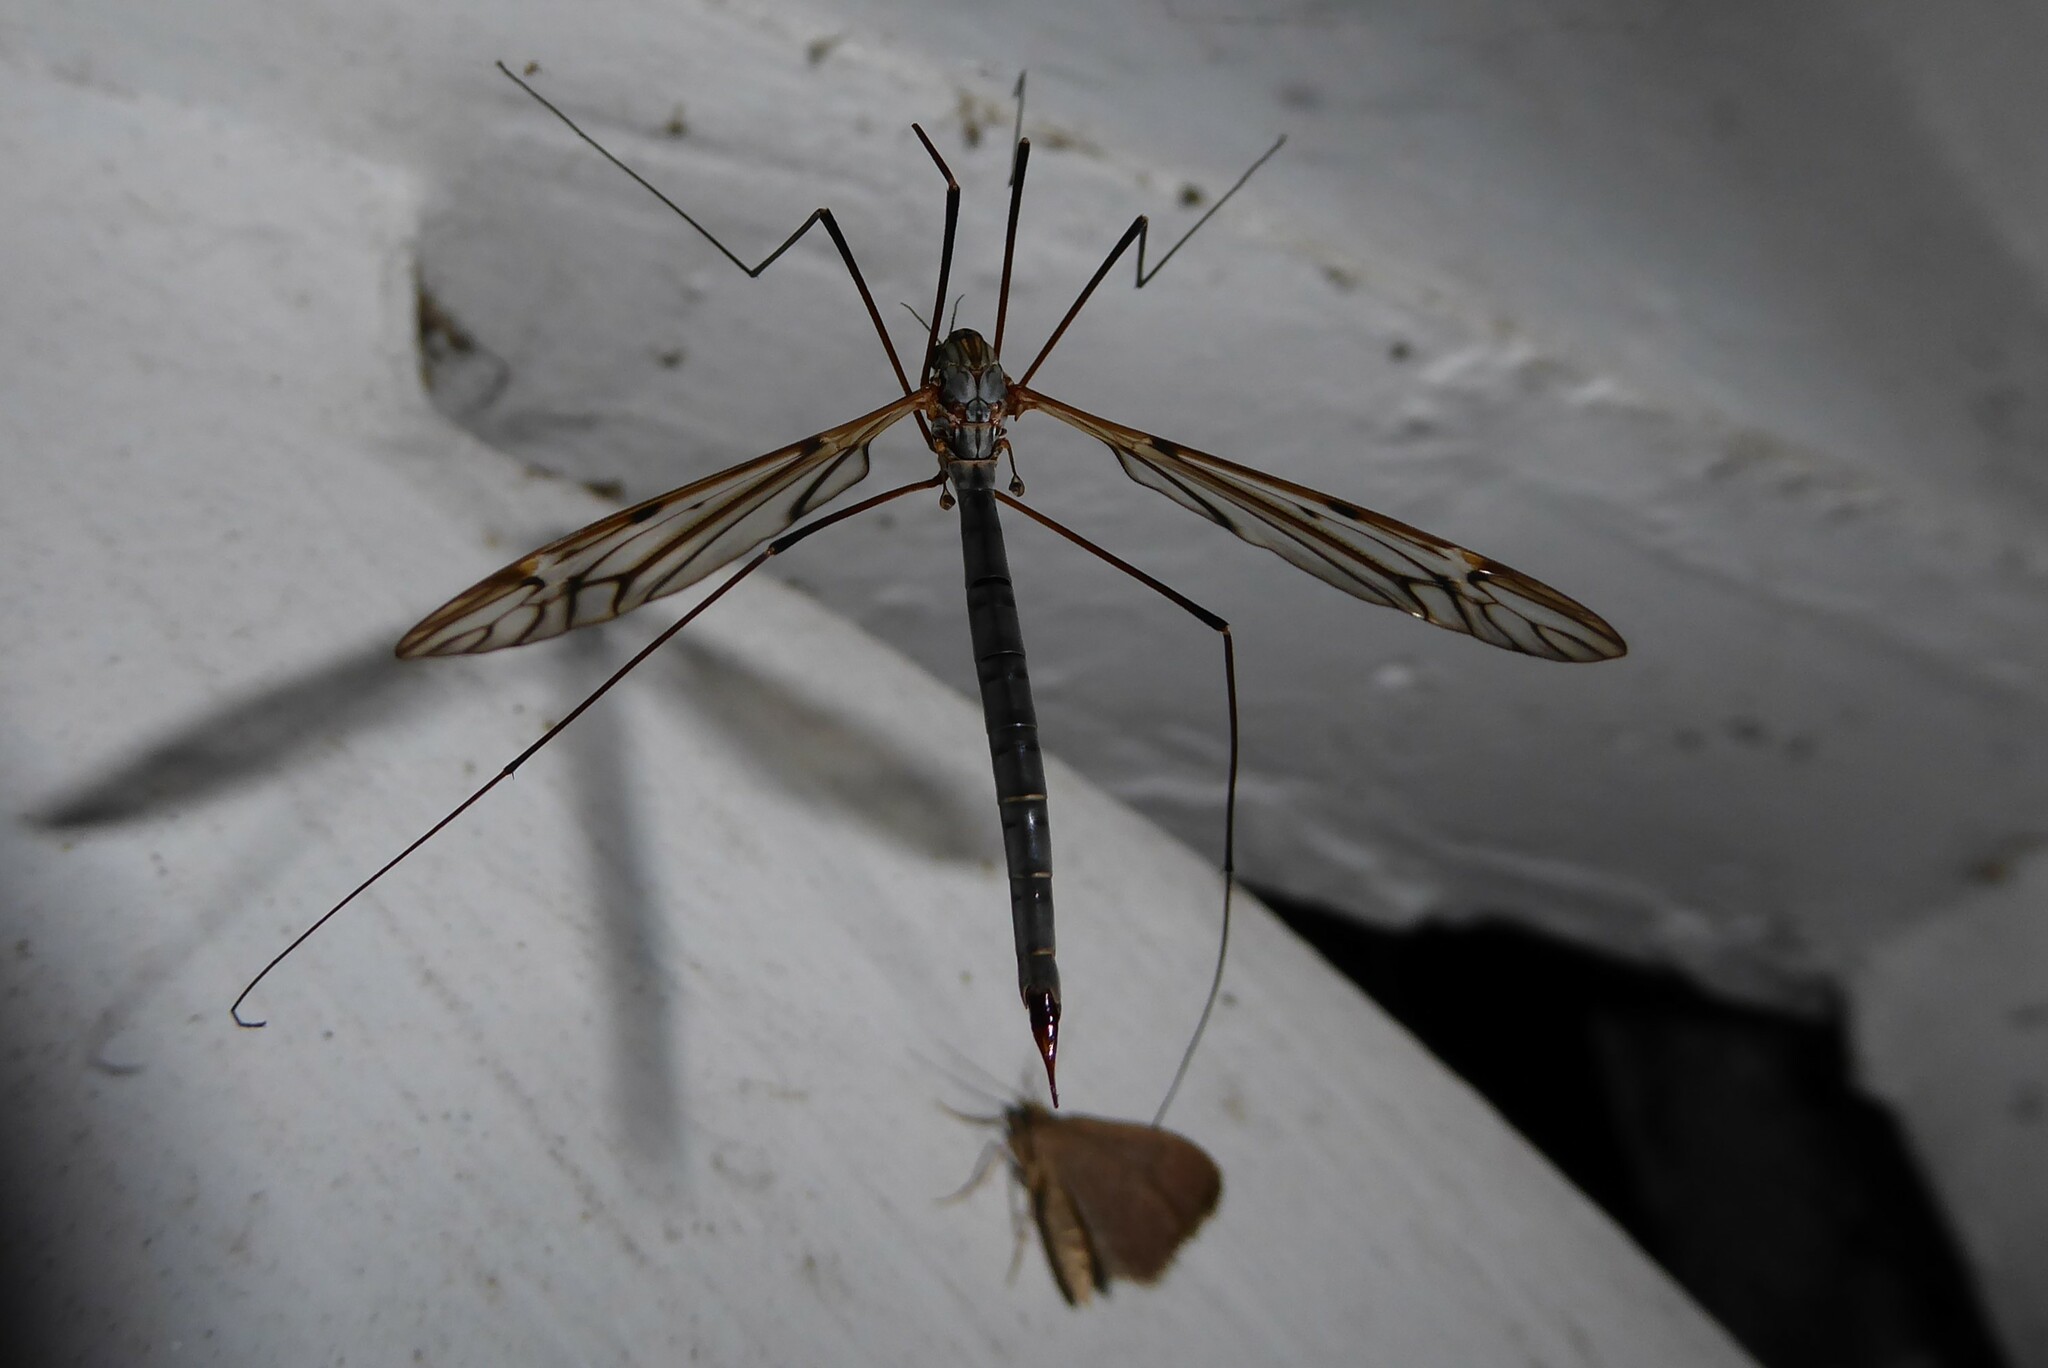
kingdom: Animalia
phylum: Arthropoda
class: Insecta
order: Diptera
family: Tipulidae
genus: Zelandotipula
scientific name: Zelandotipula novarae
